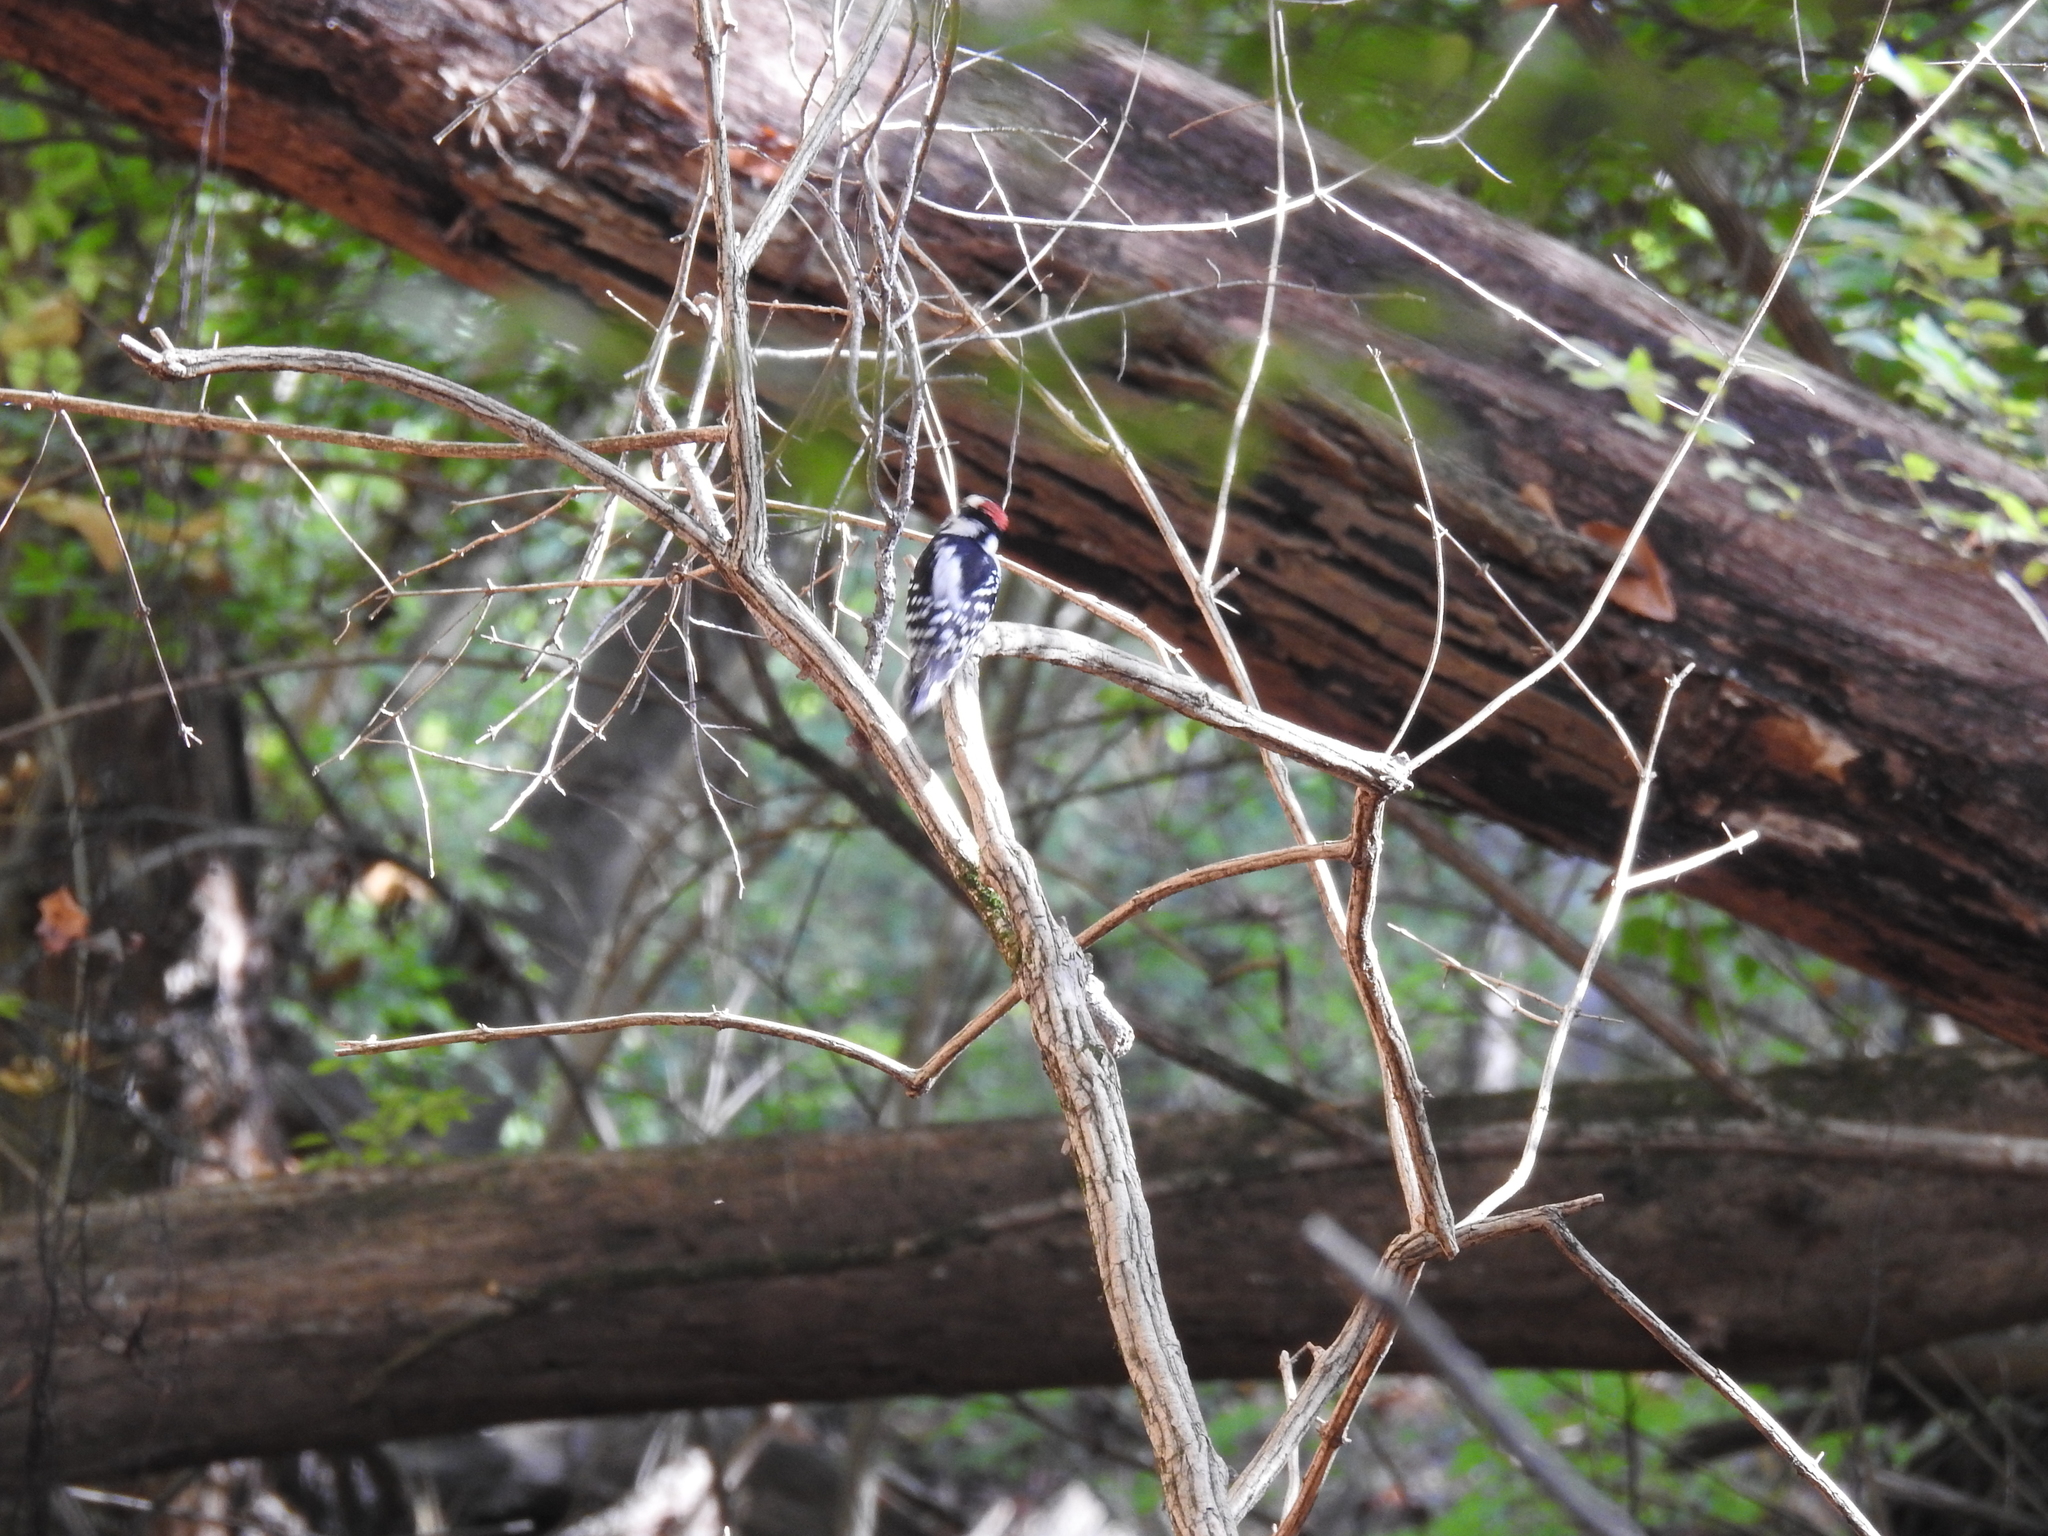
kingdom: Animalia
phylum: Chordata
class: Aves
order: Piciformes
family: Picidae
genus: Dryobates
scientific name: Dryobates pubescens
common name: Downy woodpecker
